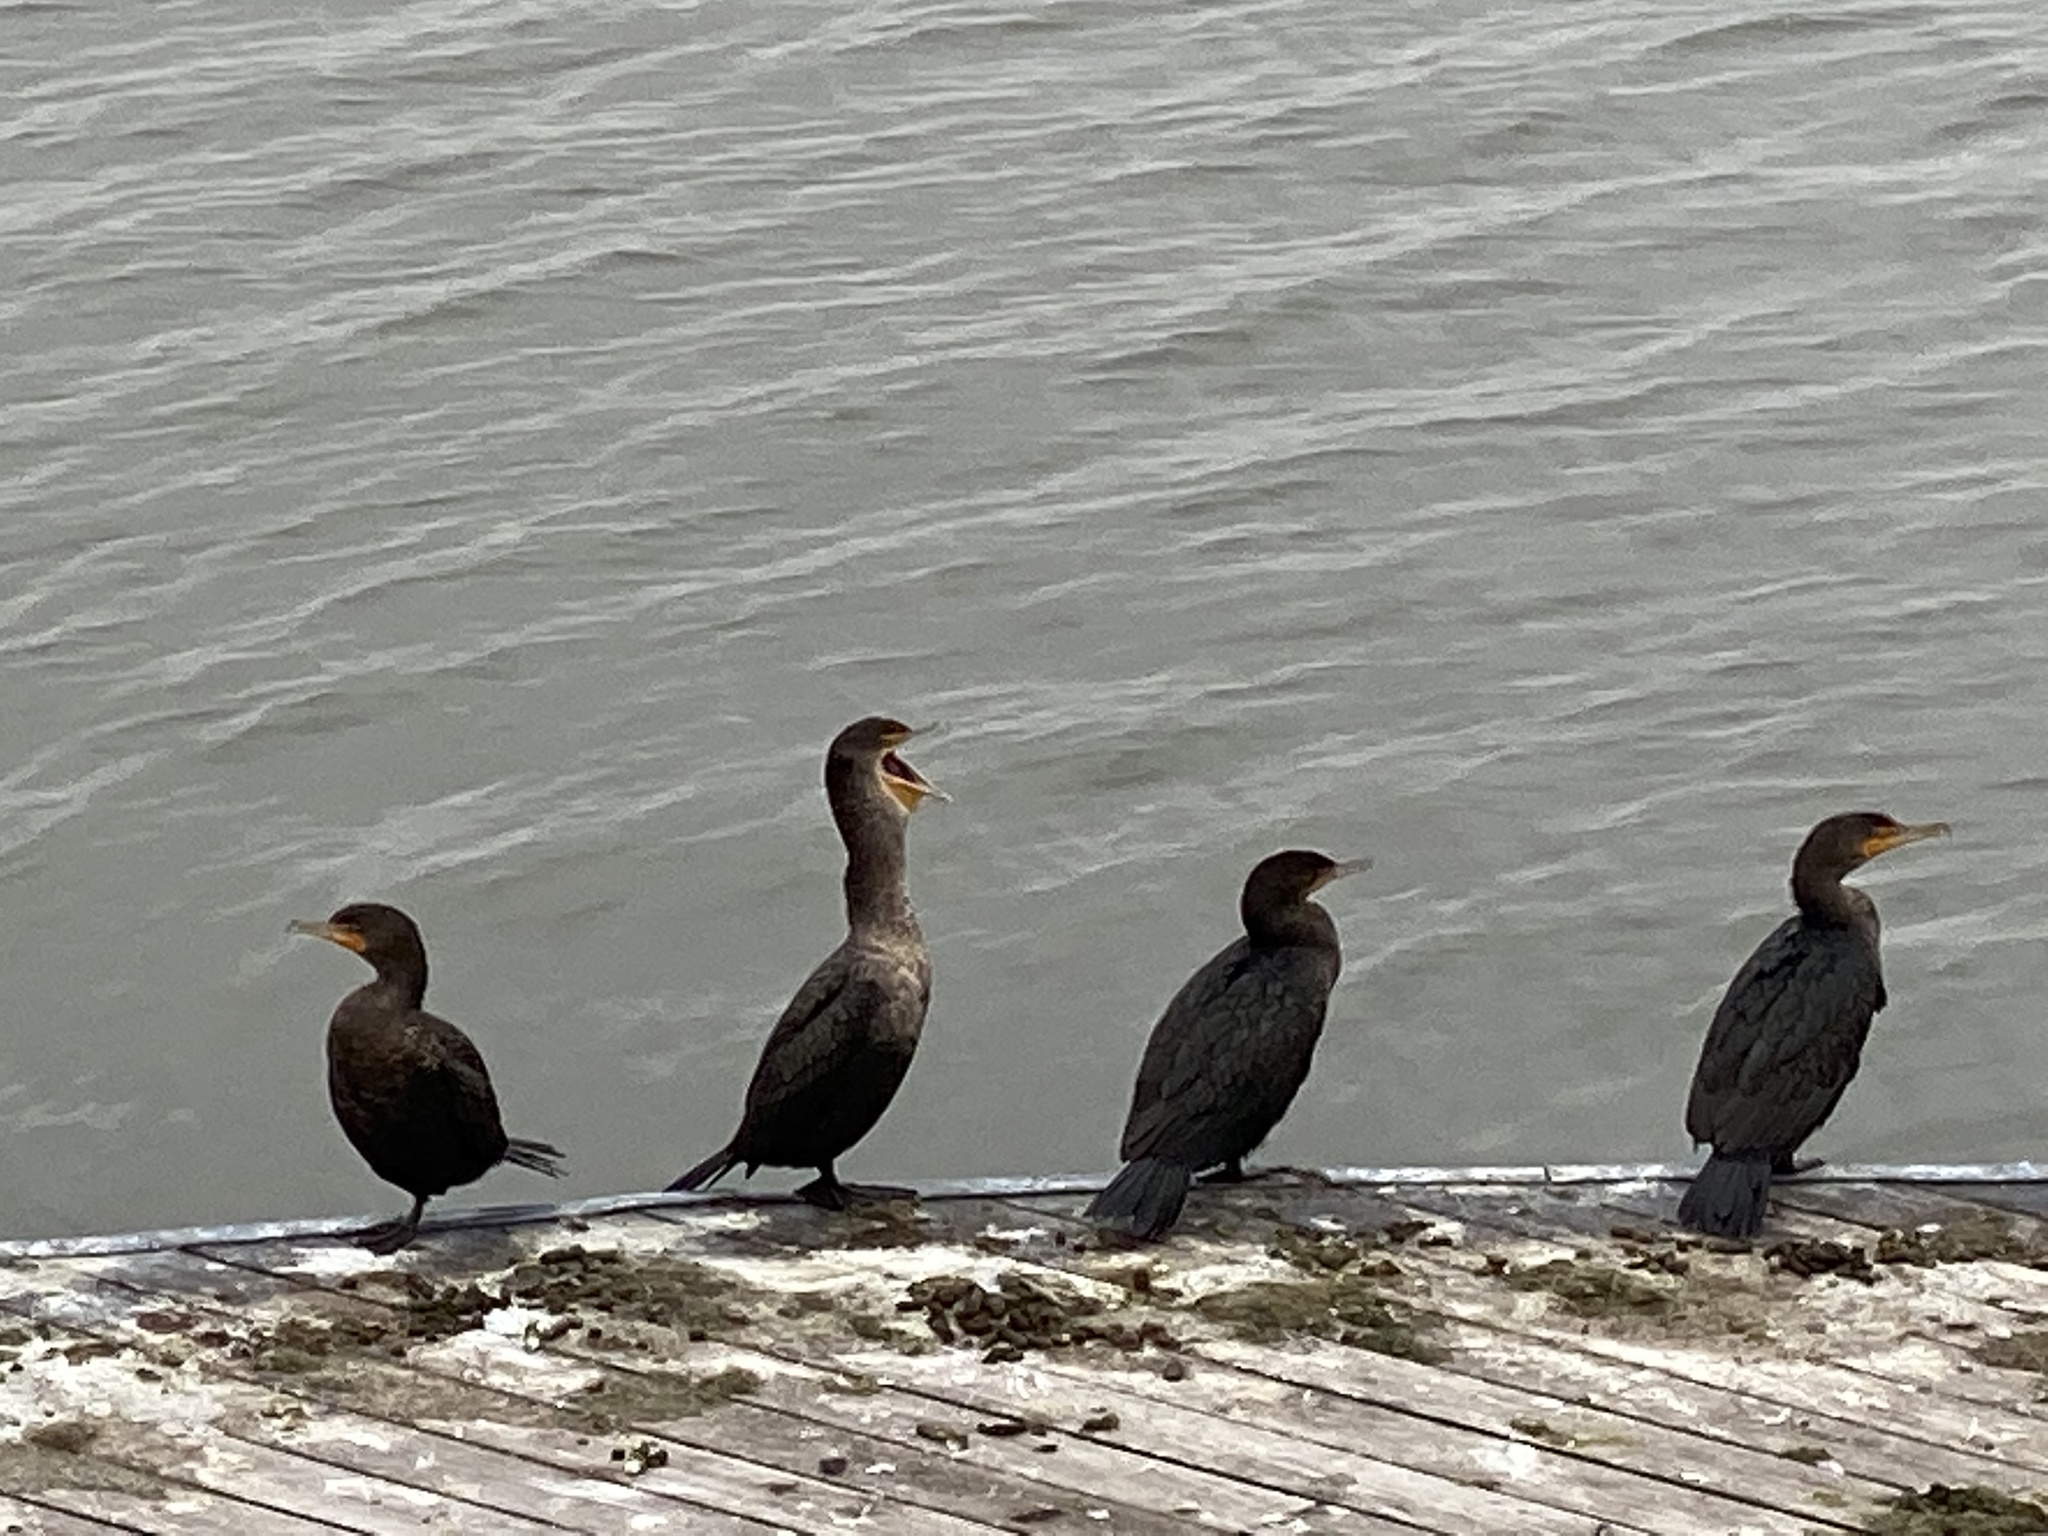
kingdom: Animalia
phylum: Chordata
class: Aves
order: Suliformes
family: Phalacrocoracidae
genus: Phalacrocorax
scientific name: Phalacrocorax auritus
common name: Double-crested cormorant
